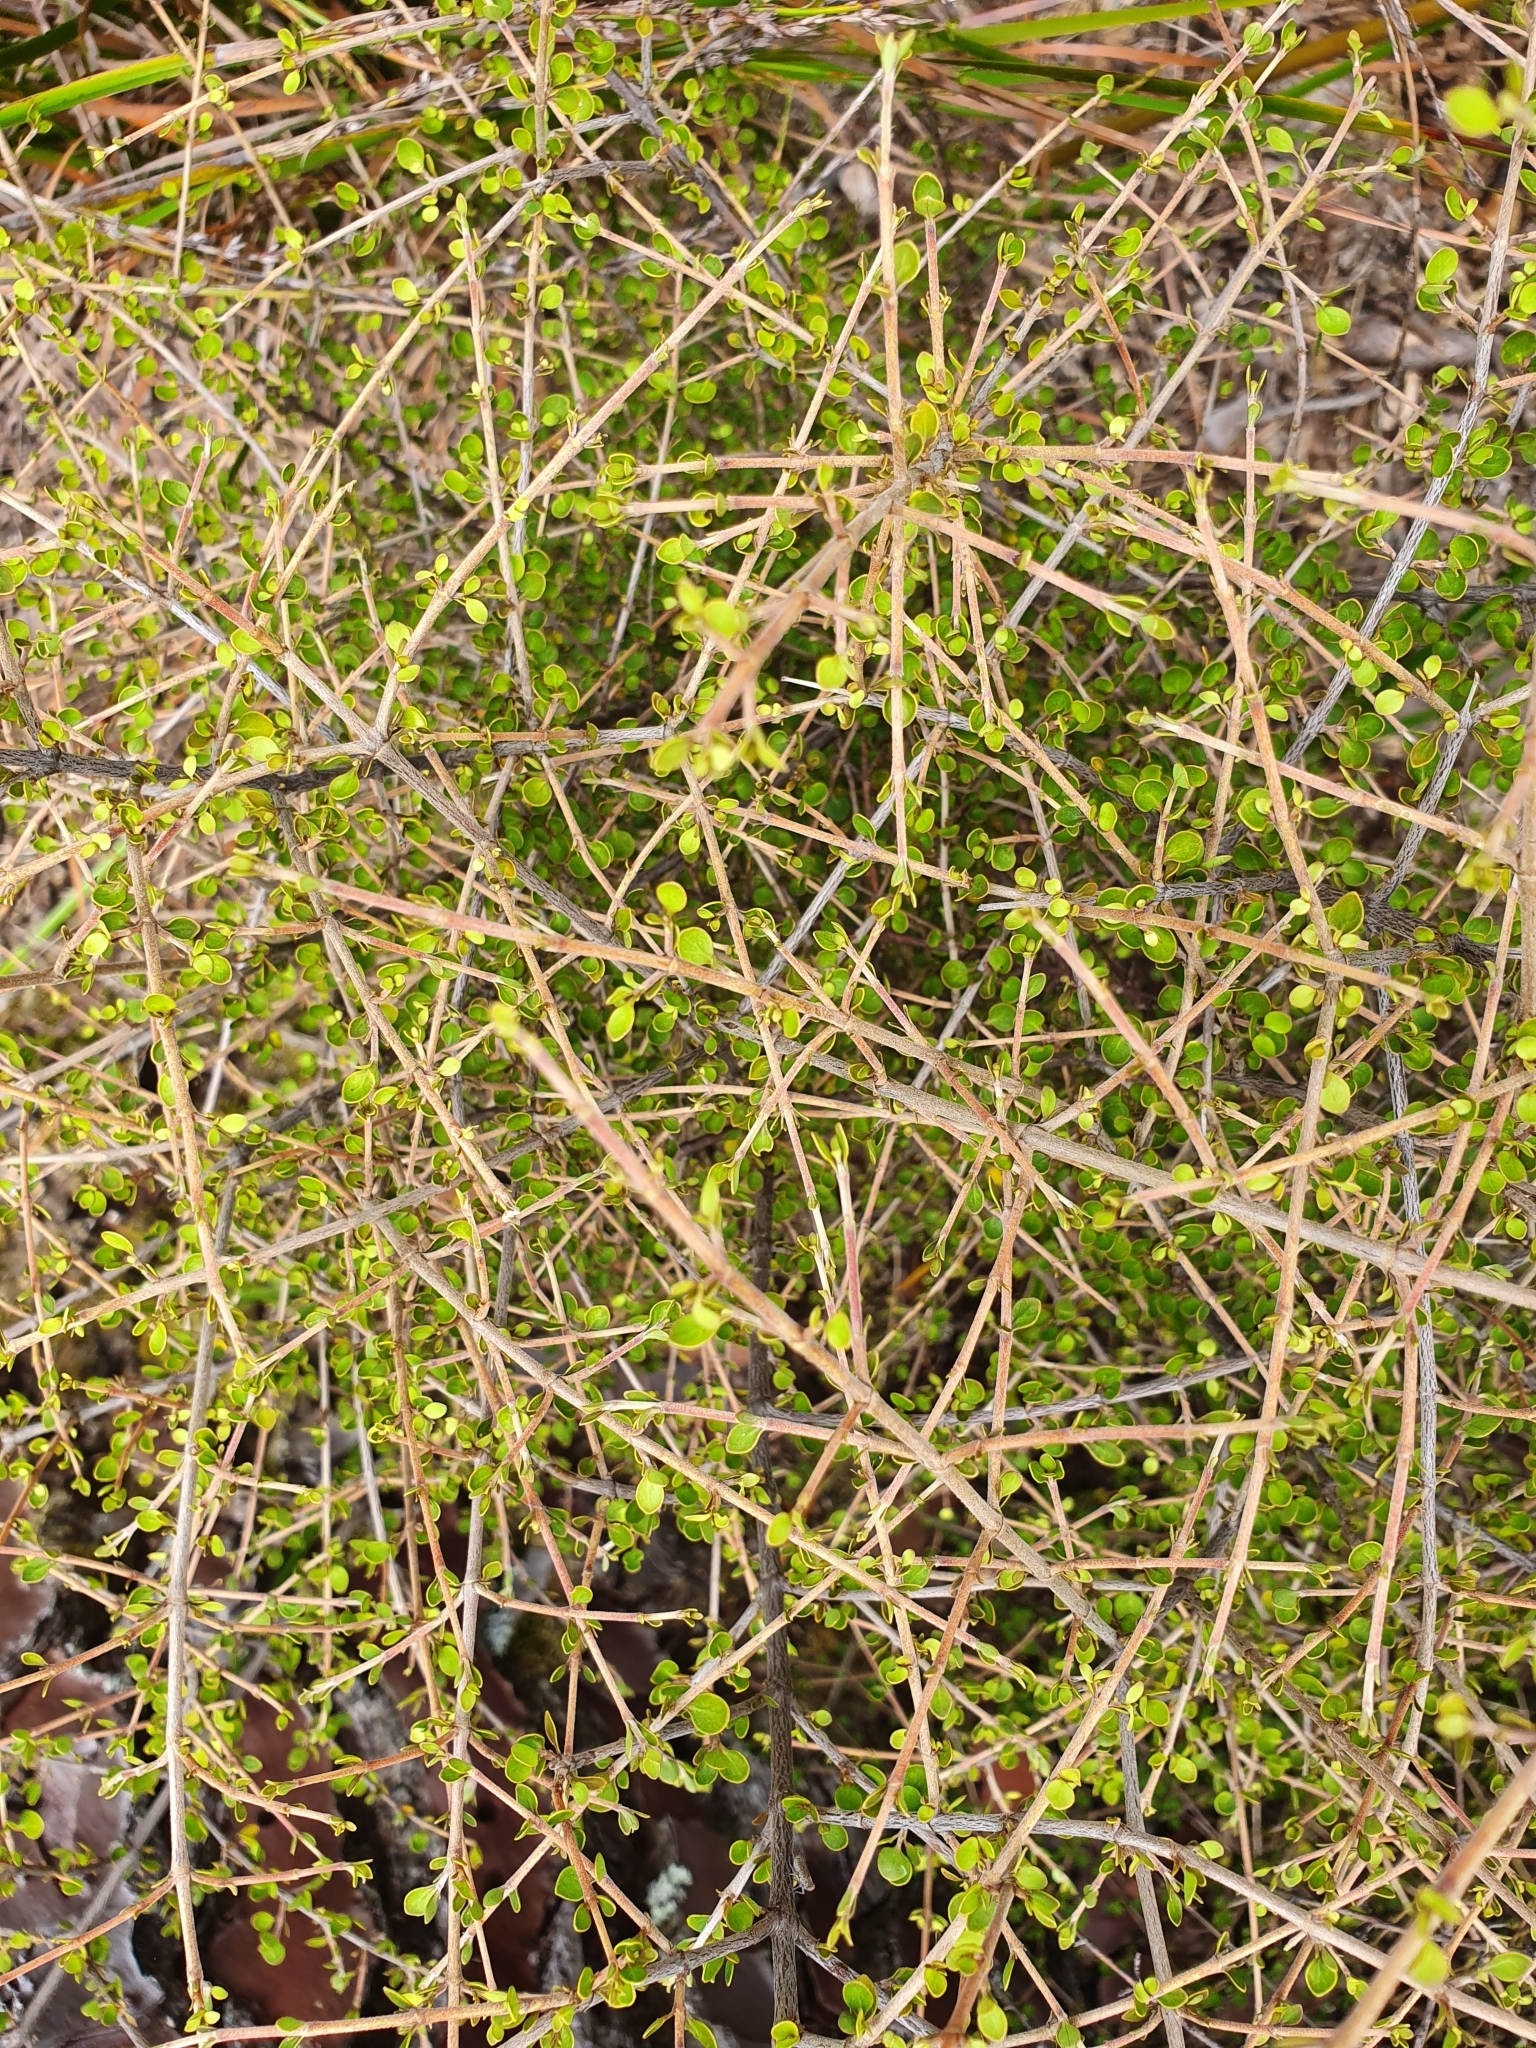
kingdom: Plantae
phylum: Tracheophyta
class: Magnoliopsida
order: Gentianales
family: Rubiaceae
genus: Coprosma
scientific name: Coprosma rhamnoides
